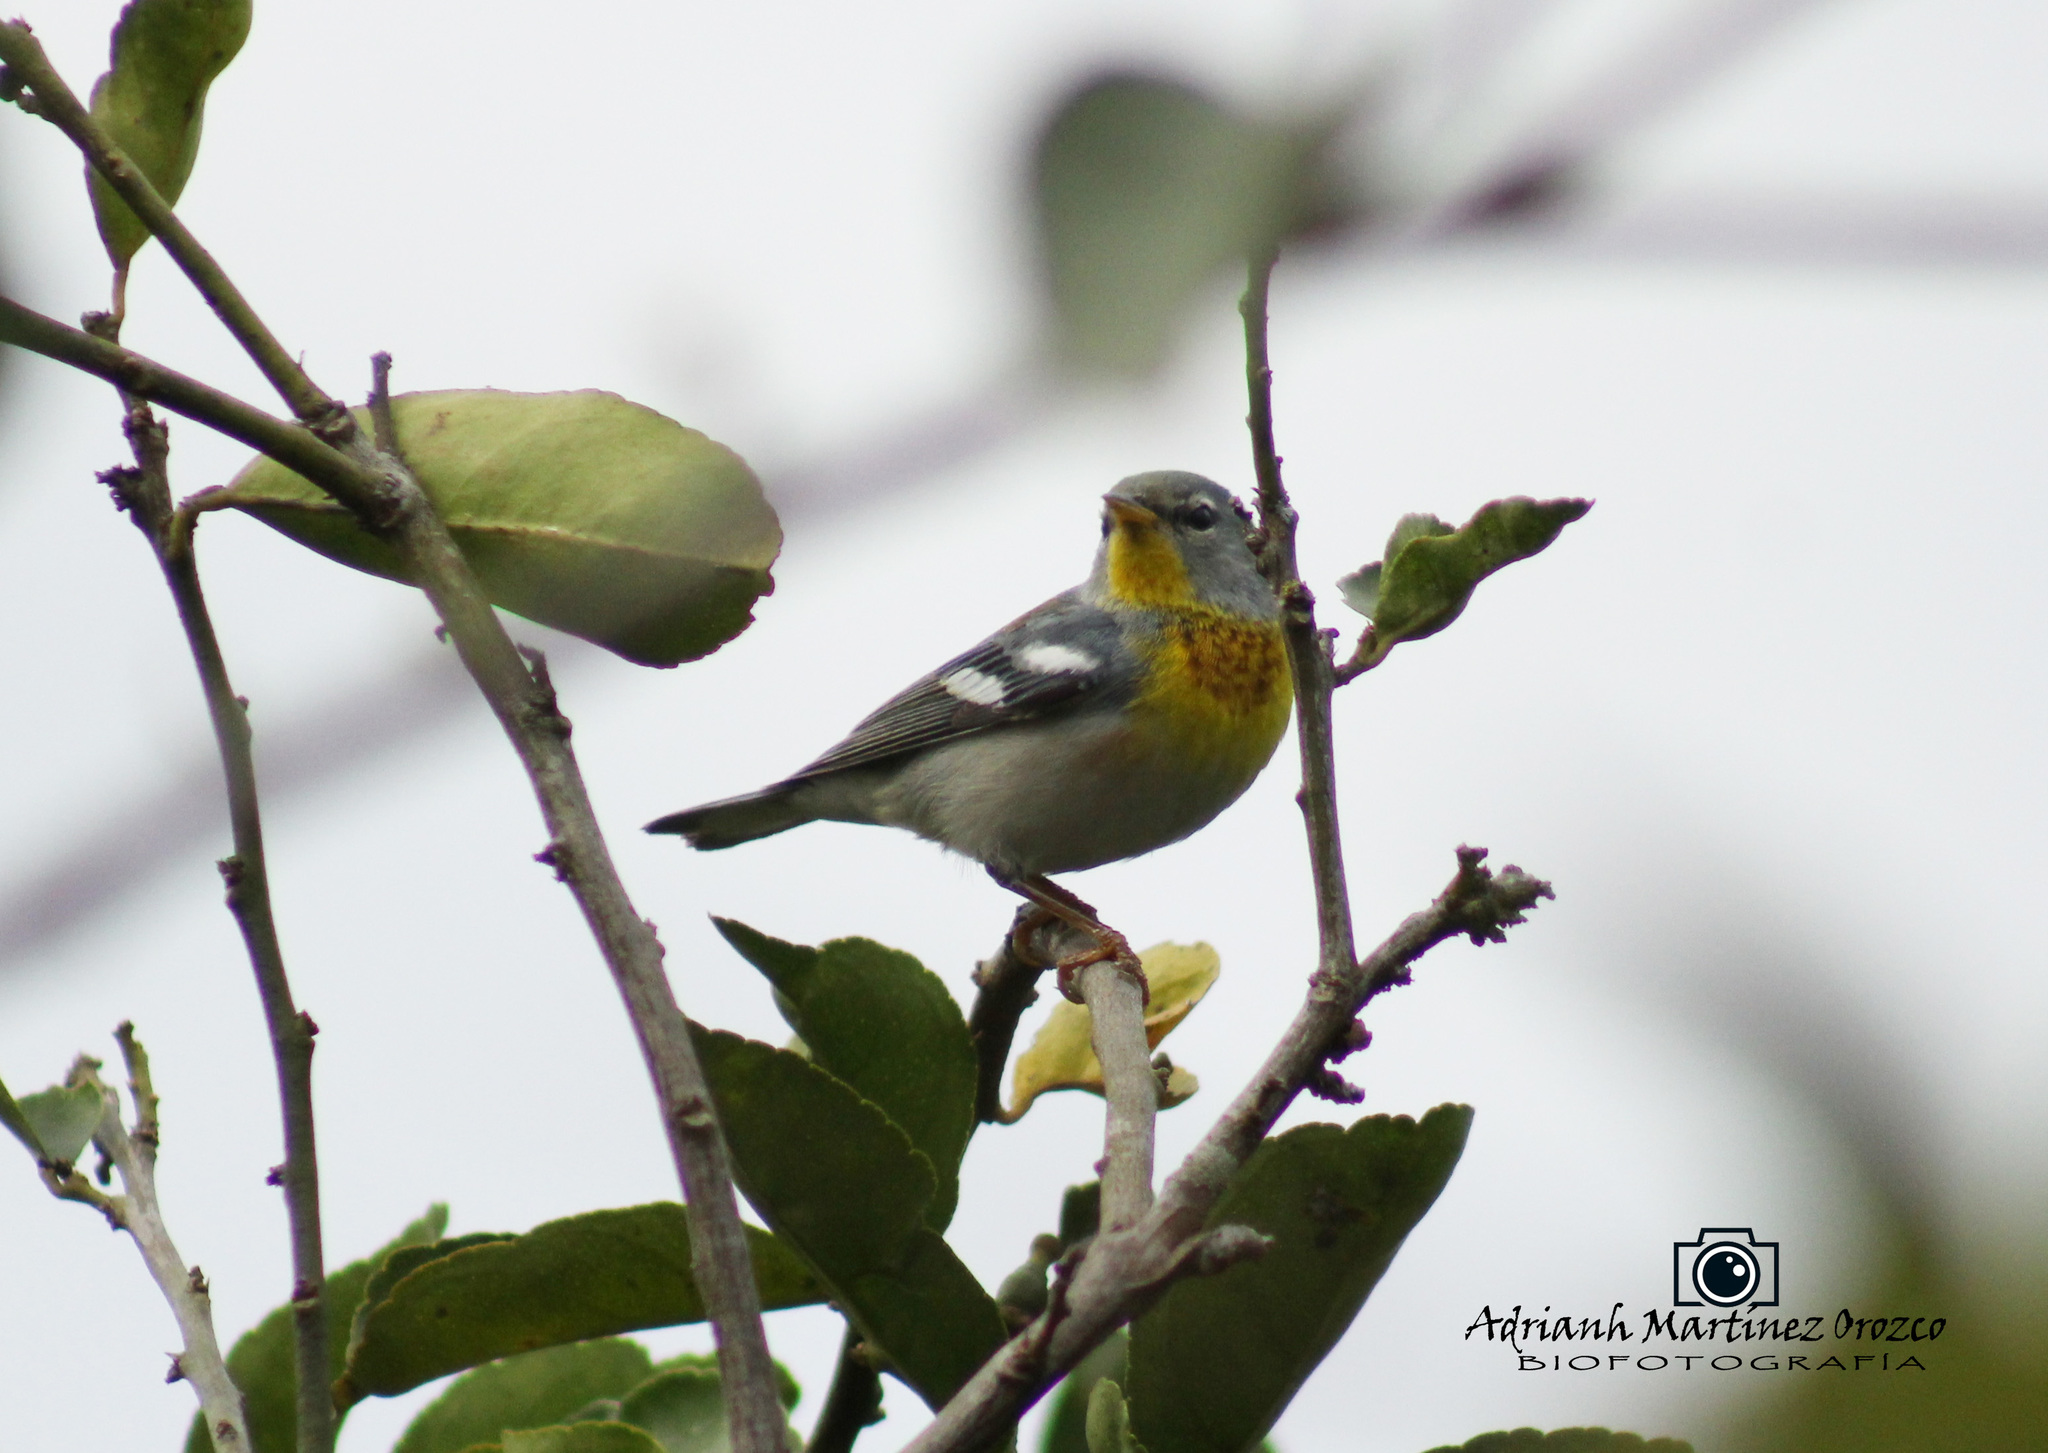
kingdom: Animalia
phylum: Chordata
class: Aves
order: Passeriformes
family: Parulidae
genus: Setophaga
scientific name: Setophaga americana
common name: Northern parula
